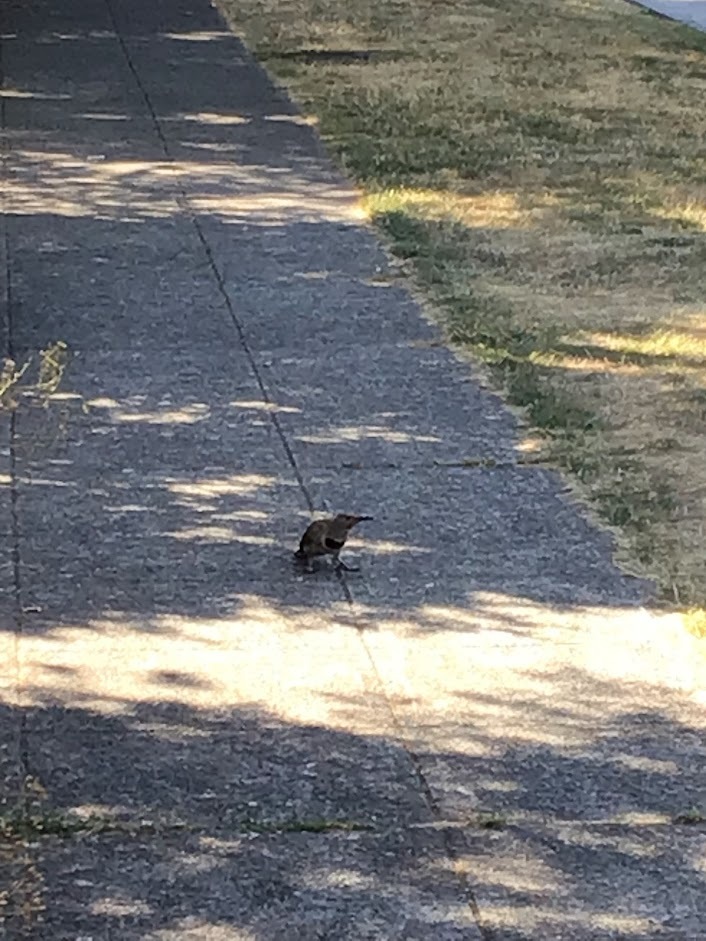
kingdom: Animalia
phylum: Chordata
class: Aves
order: Piciformes
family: Picidae
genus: Colaptes
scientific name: Colaptes auratus
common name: Northern flicker
